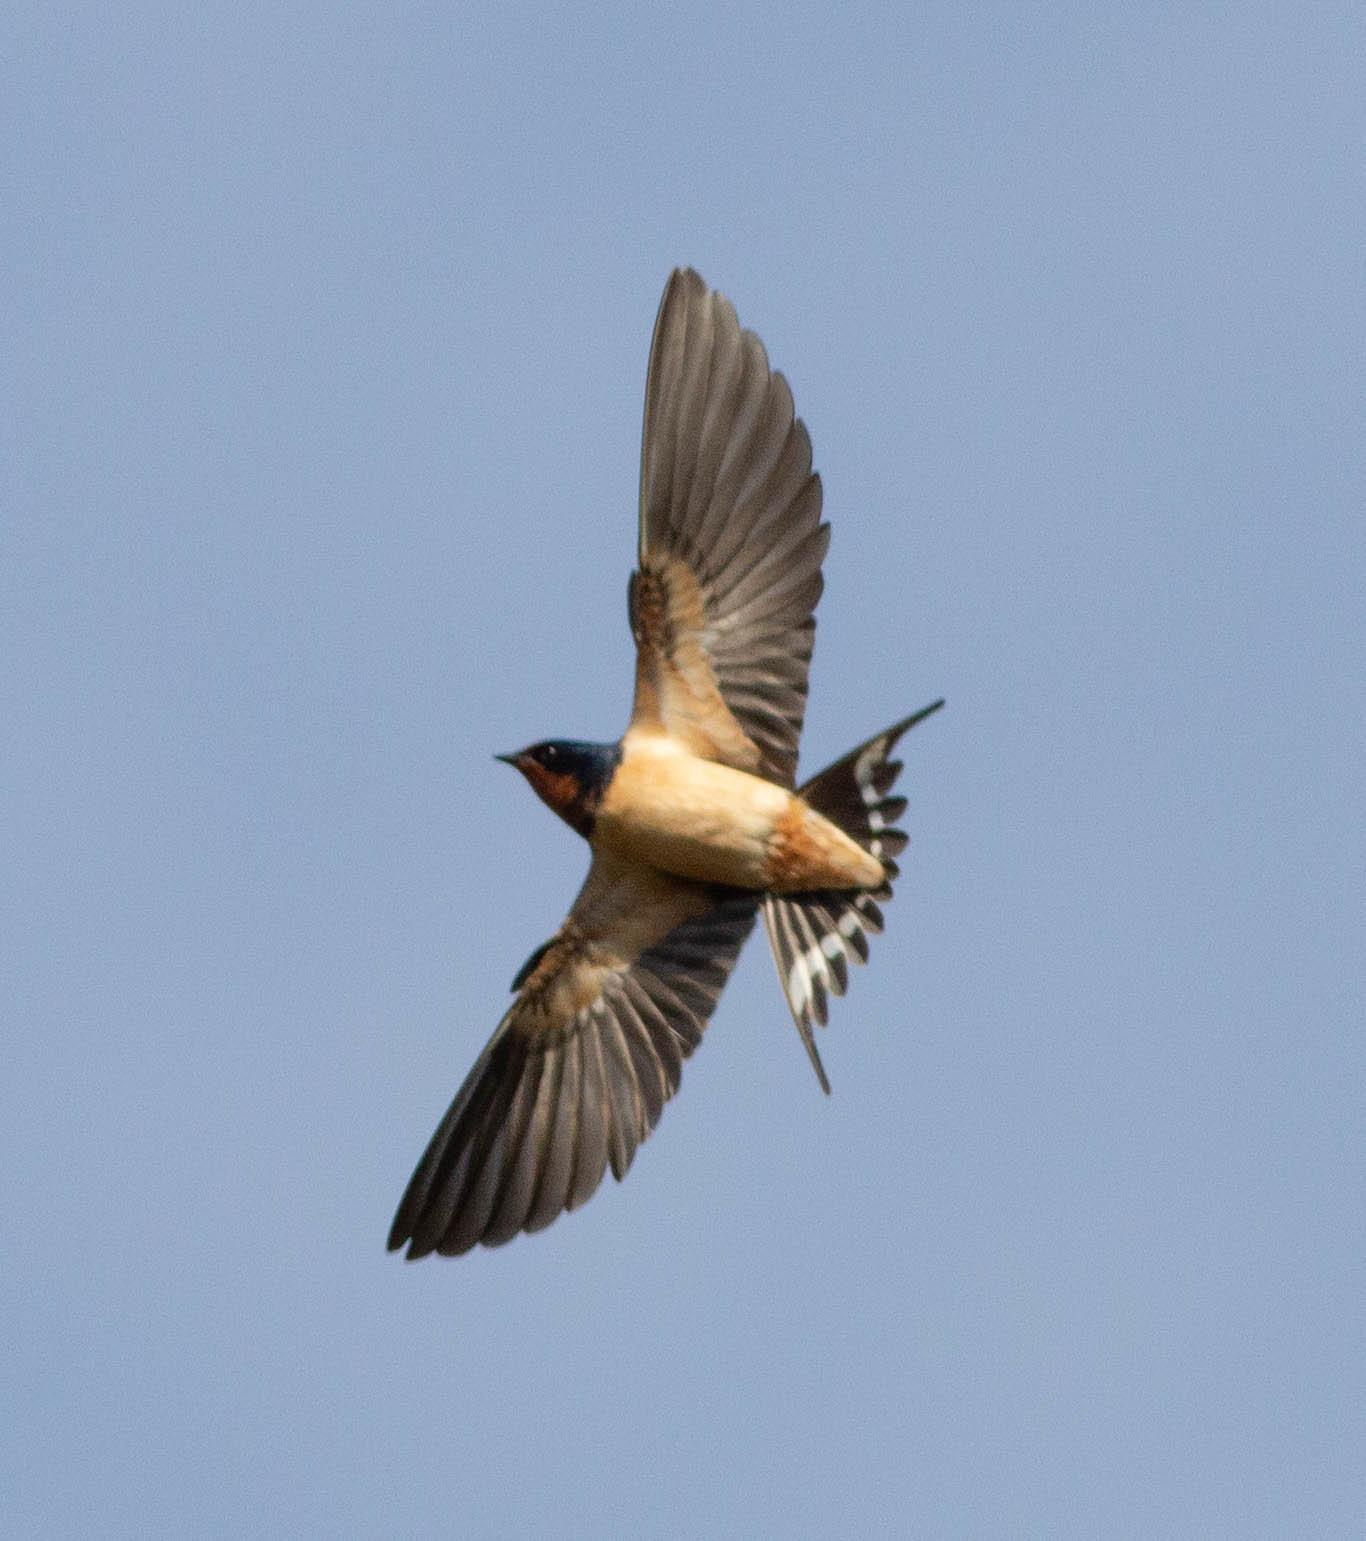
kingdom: Animalia
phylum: Chordata
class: Aves
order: Passeriformes
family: Hirundinidae
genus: Hirundo
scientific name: Hirundo rustica
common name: Barn swallow
